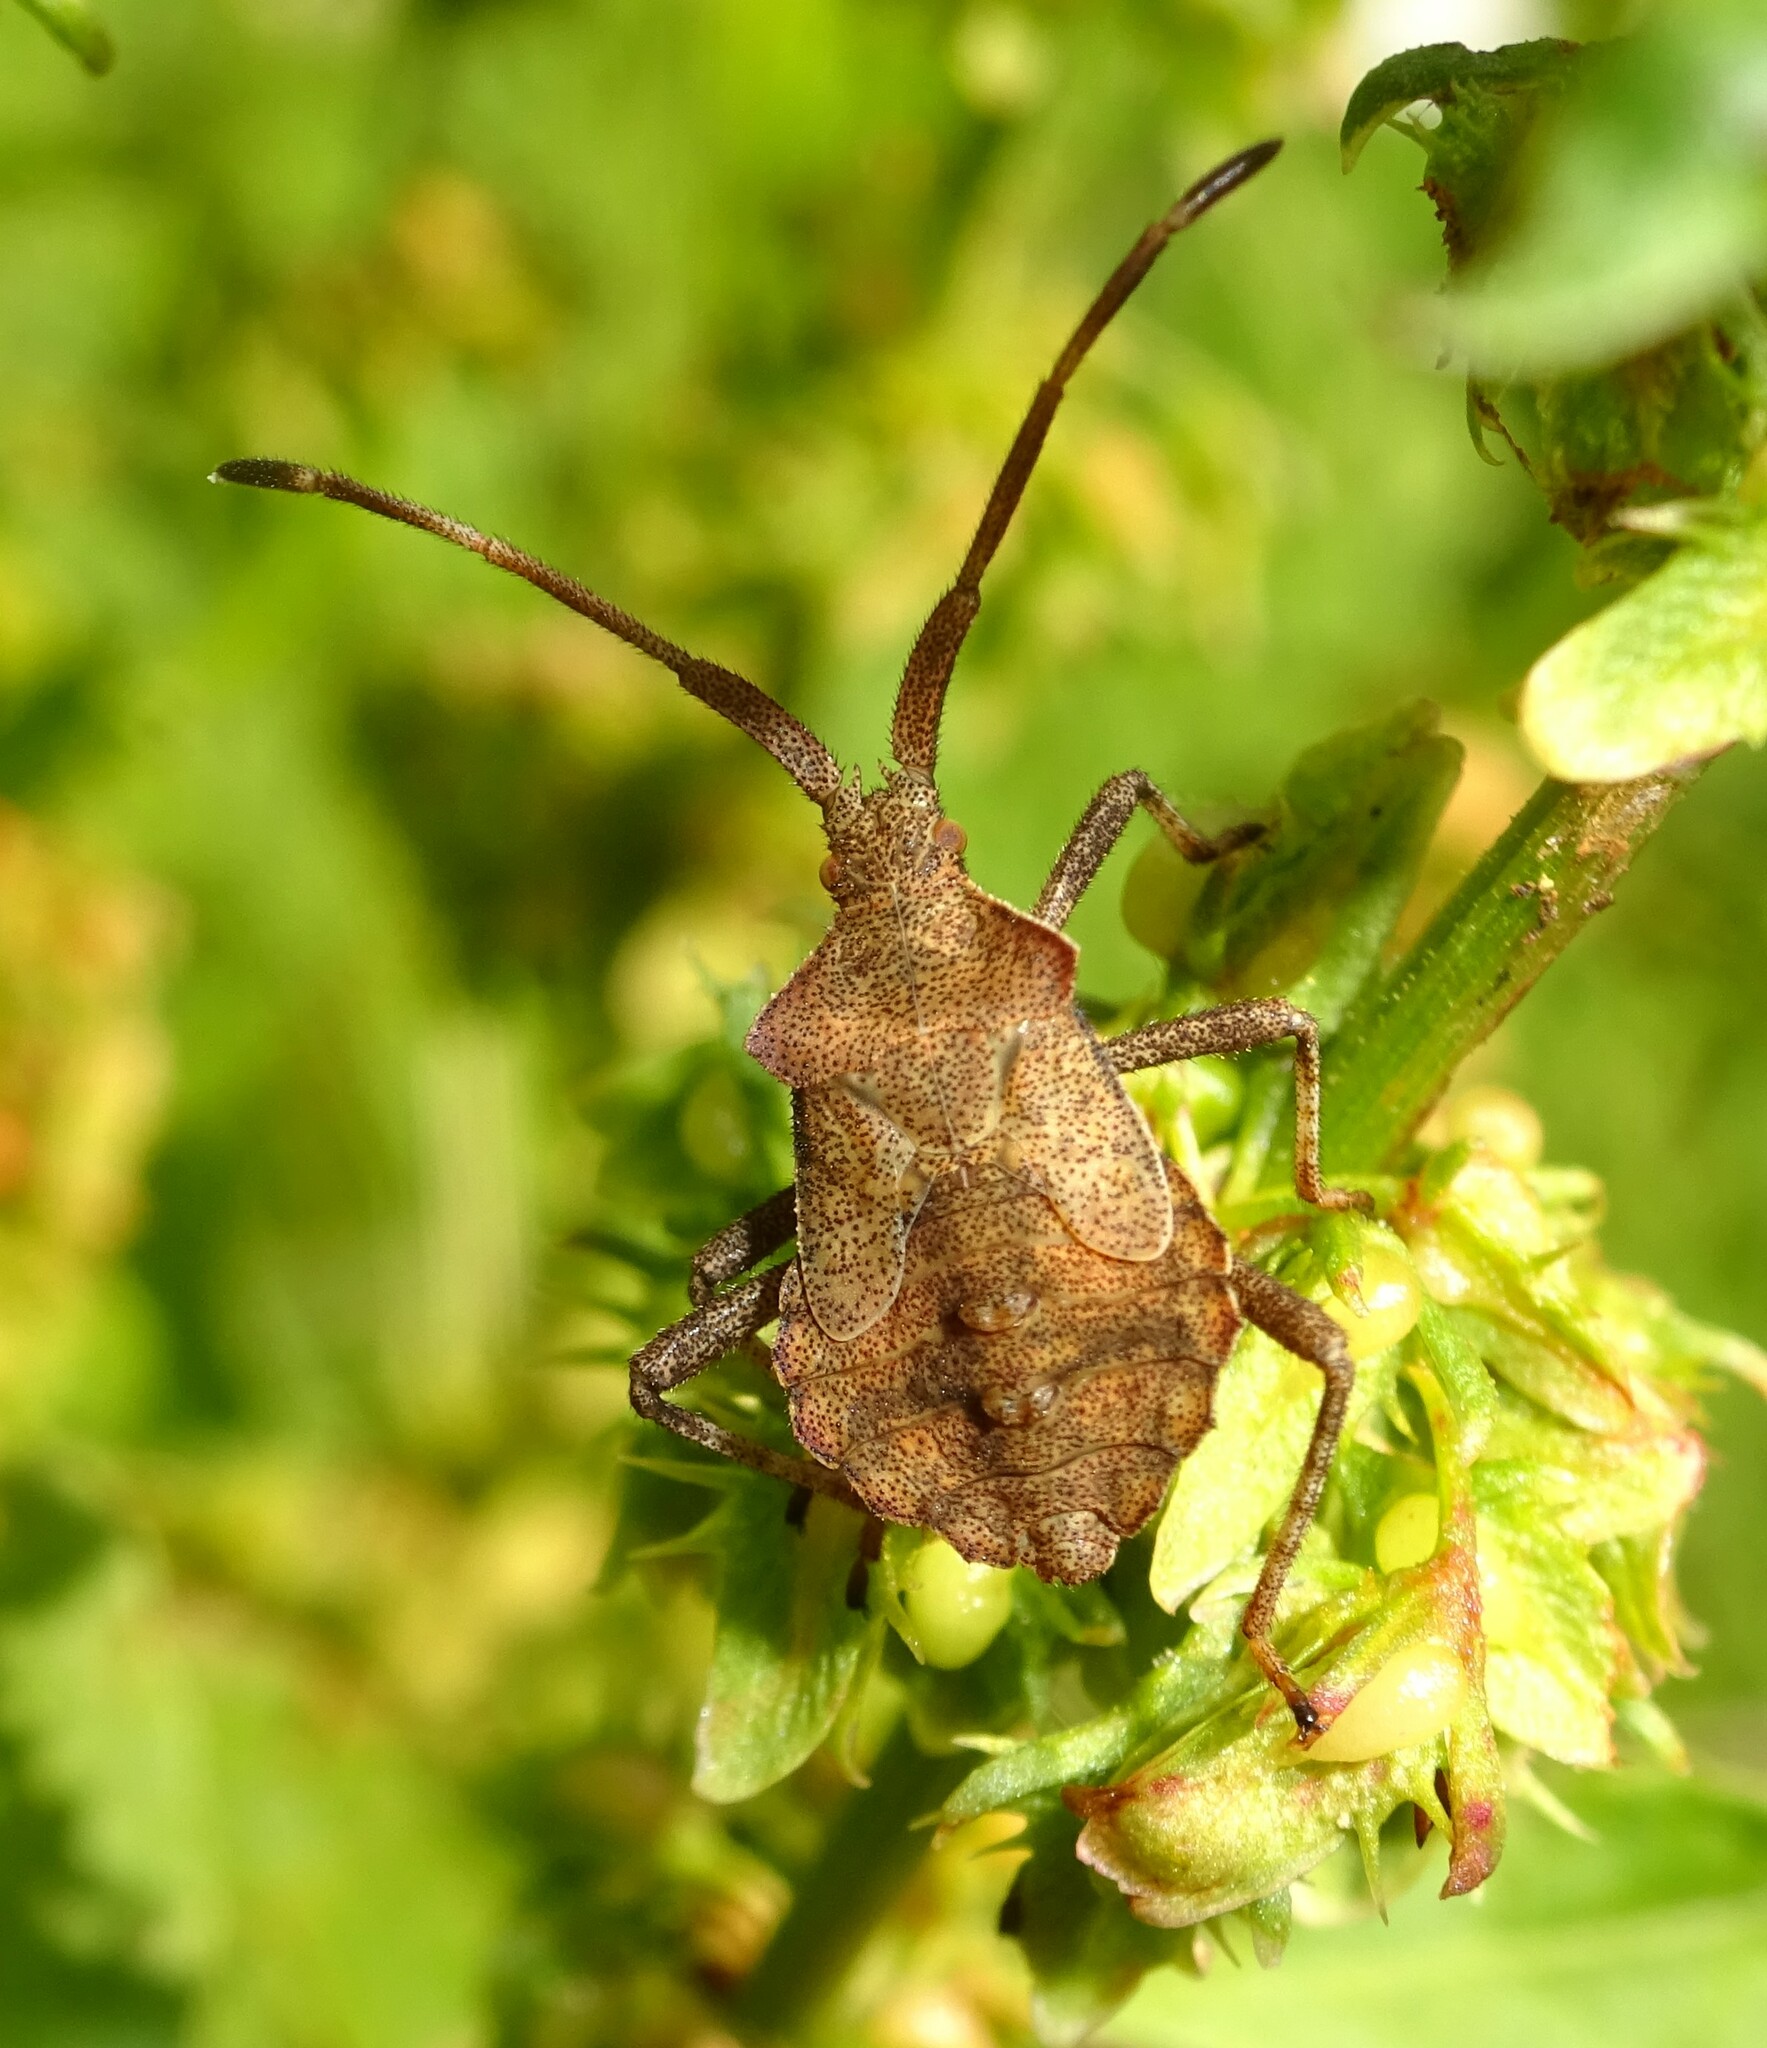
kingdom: Animalia
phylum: Arthropoda
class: Insecta
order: Hemiptera
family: Coreidae
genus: Coreus
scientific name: Coreus marginatus
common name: Dock bug
